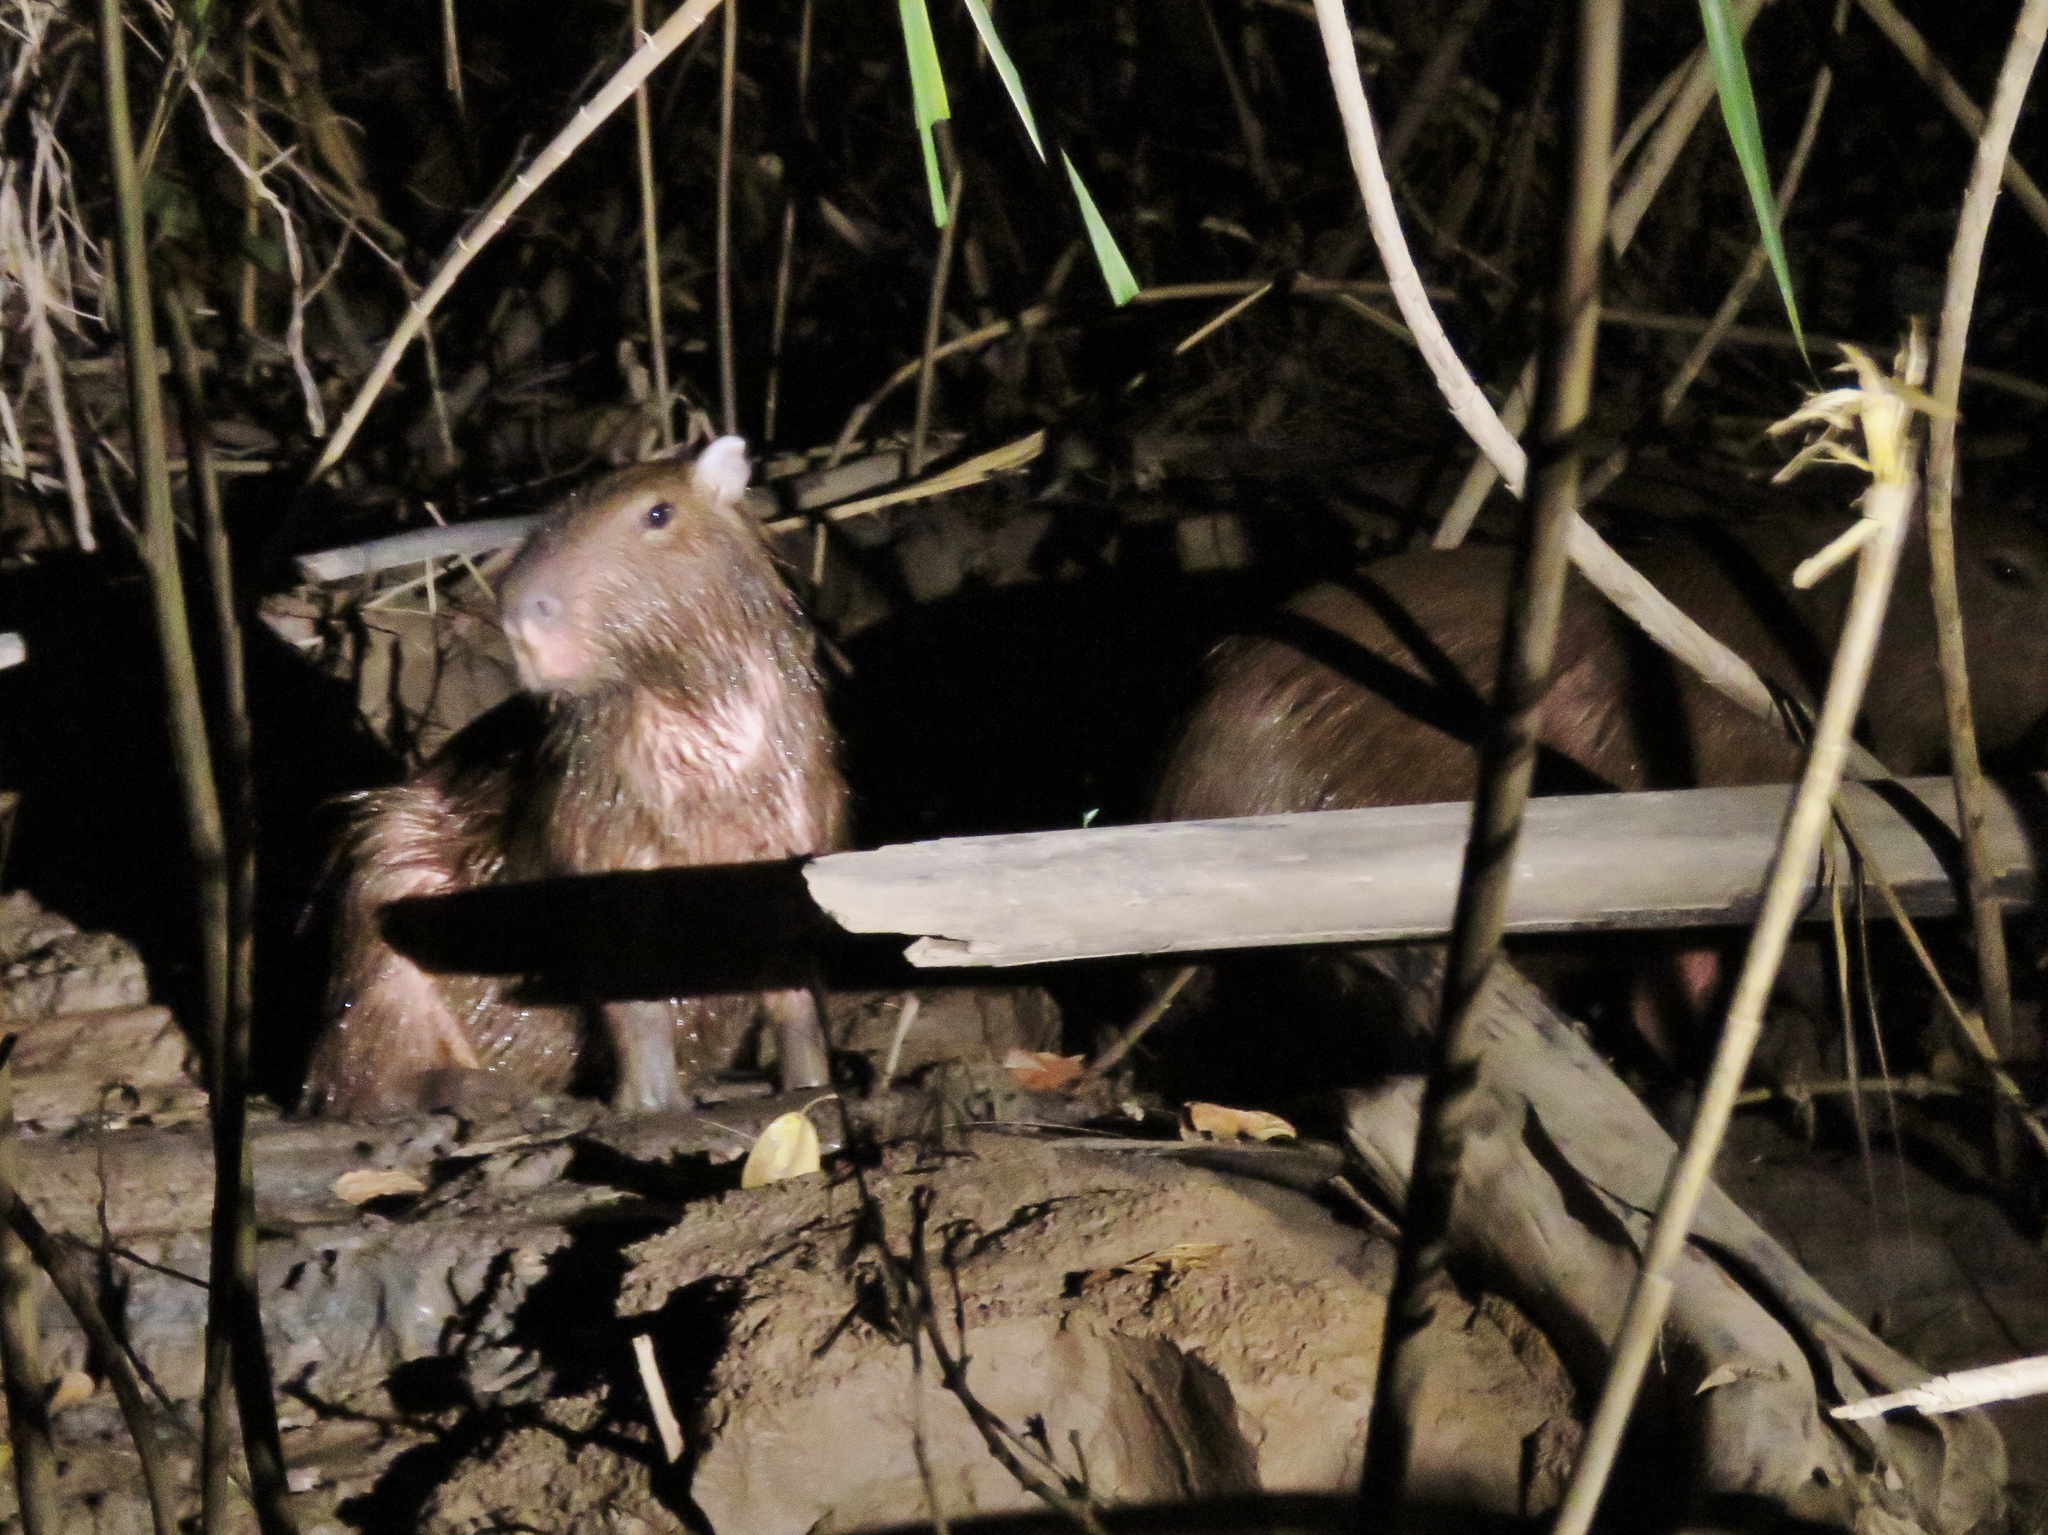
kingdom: Animalia
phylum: Chordata
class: Mammalia
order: Rodentia
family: Caviidae
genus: Hydrochoerus
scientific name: Hydrochoerus hydrochaeris
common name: Capybara
